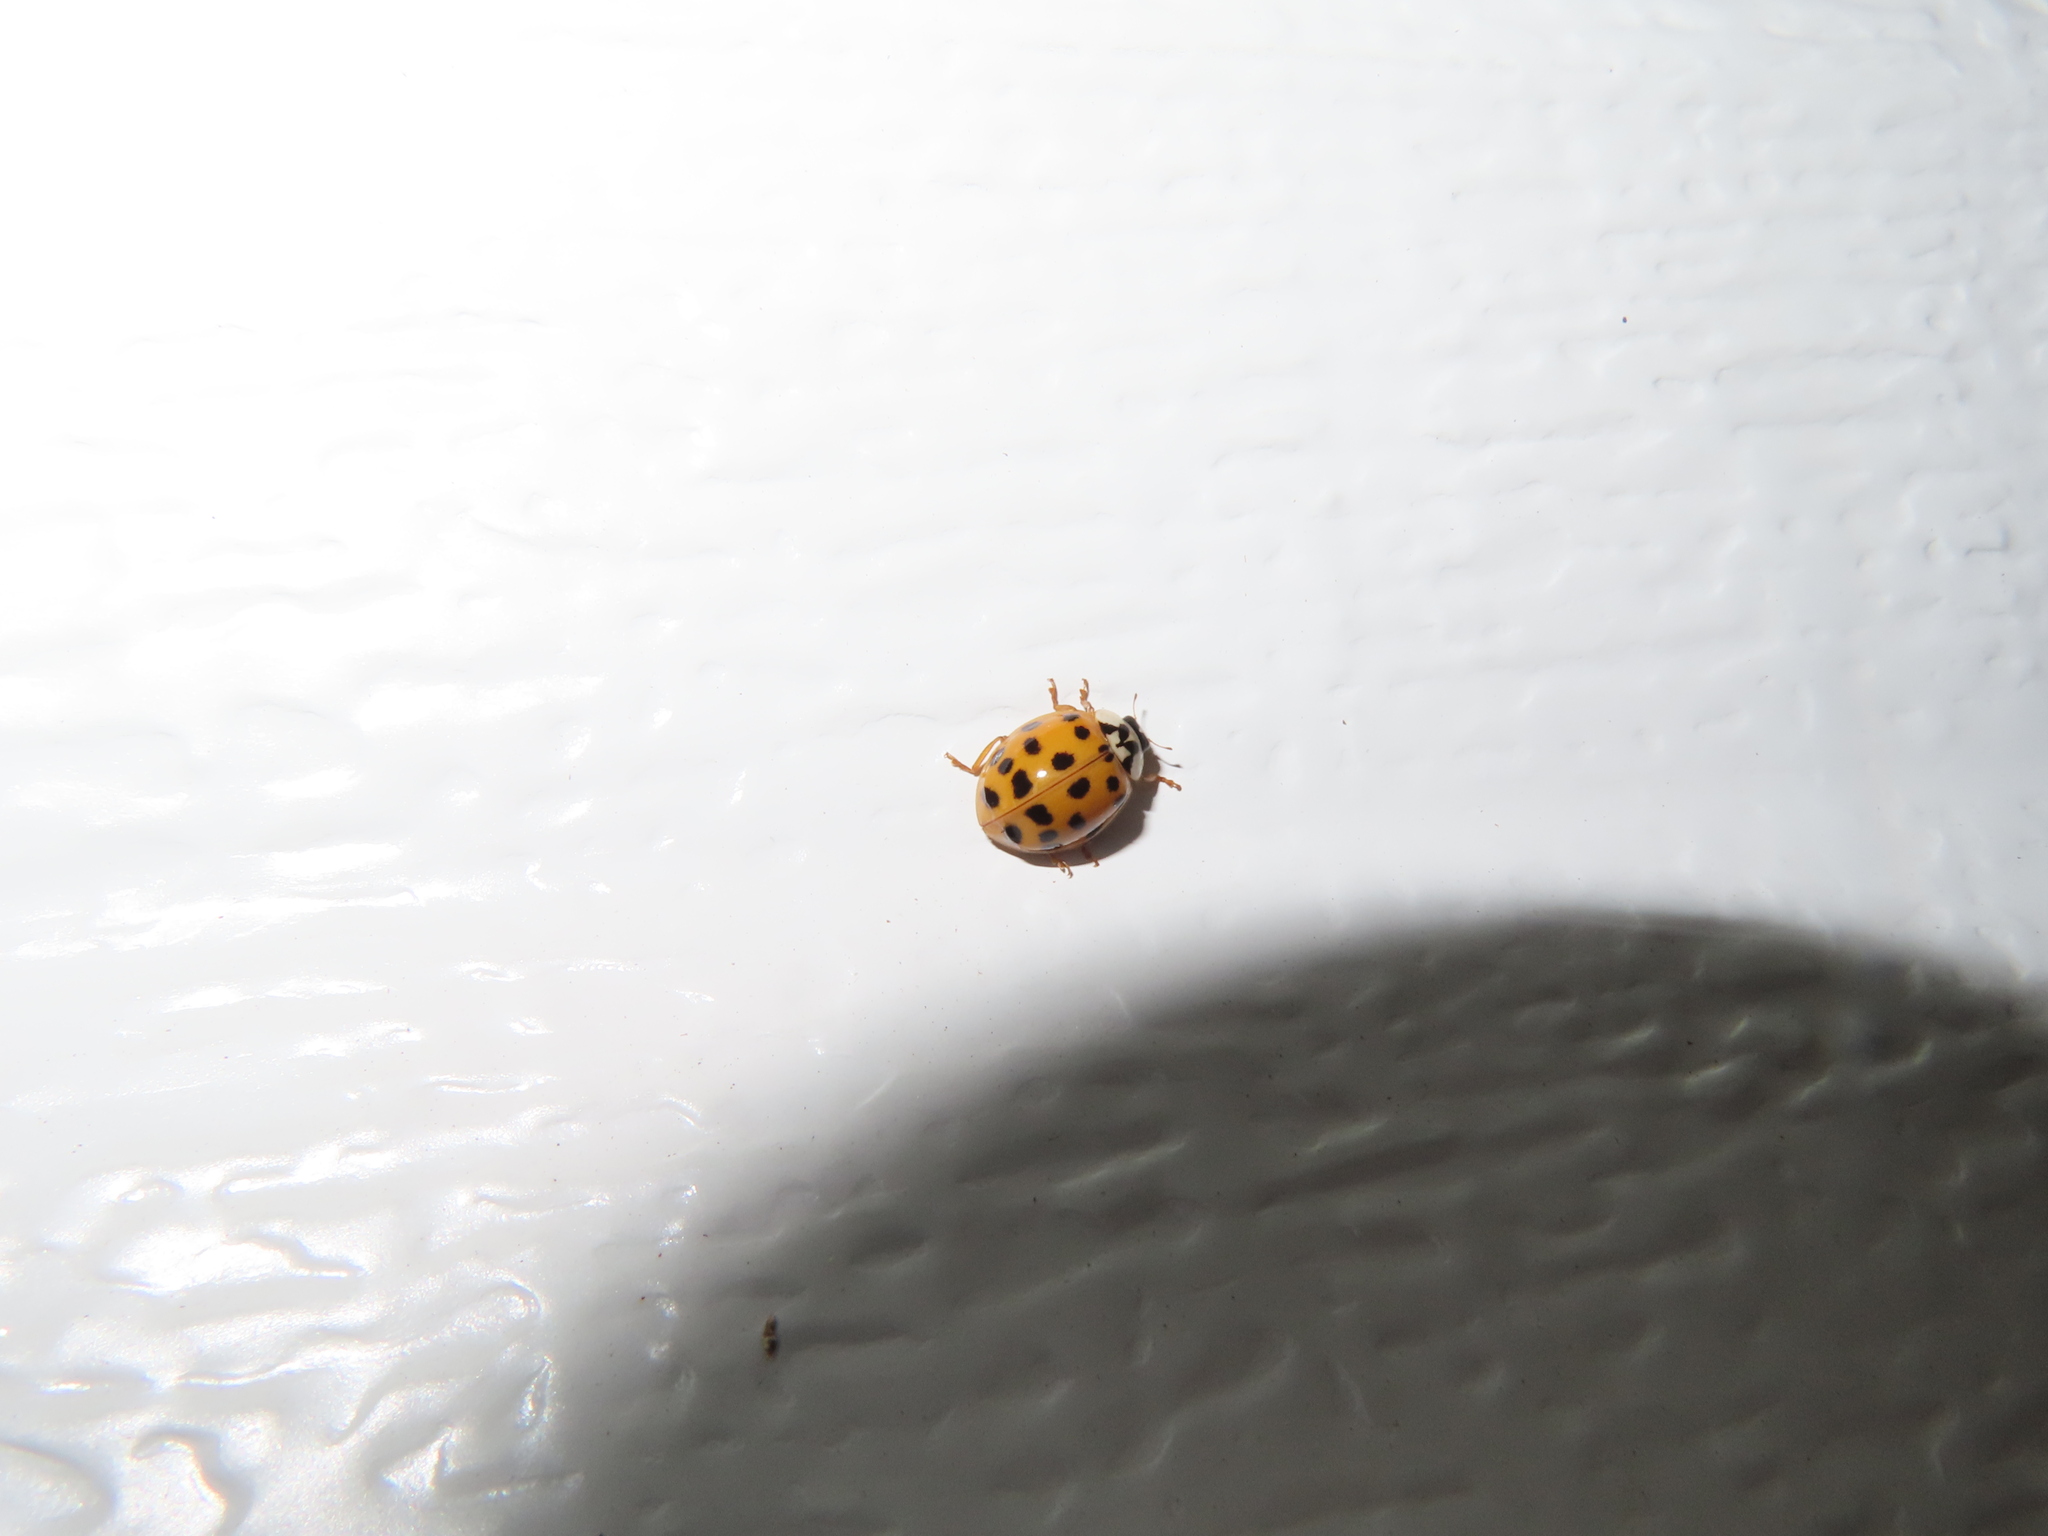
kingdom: Animalia
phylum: Arthropoda
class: Insecta
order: Coleoptera
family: Coccinellidae
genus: Harmonia
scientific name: Harmonia axyridis
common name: Harlequin ladybird
